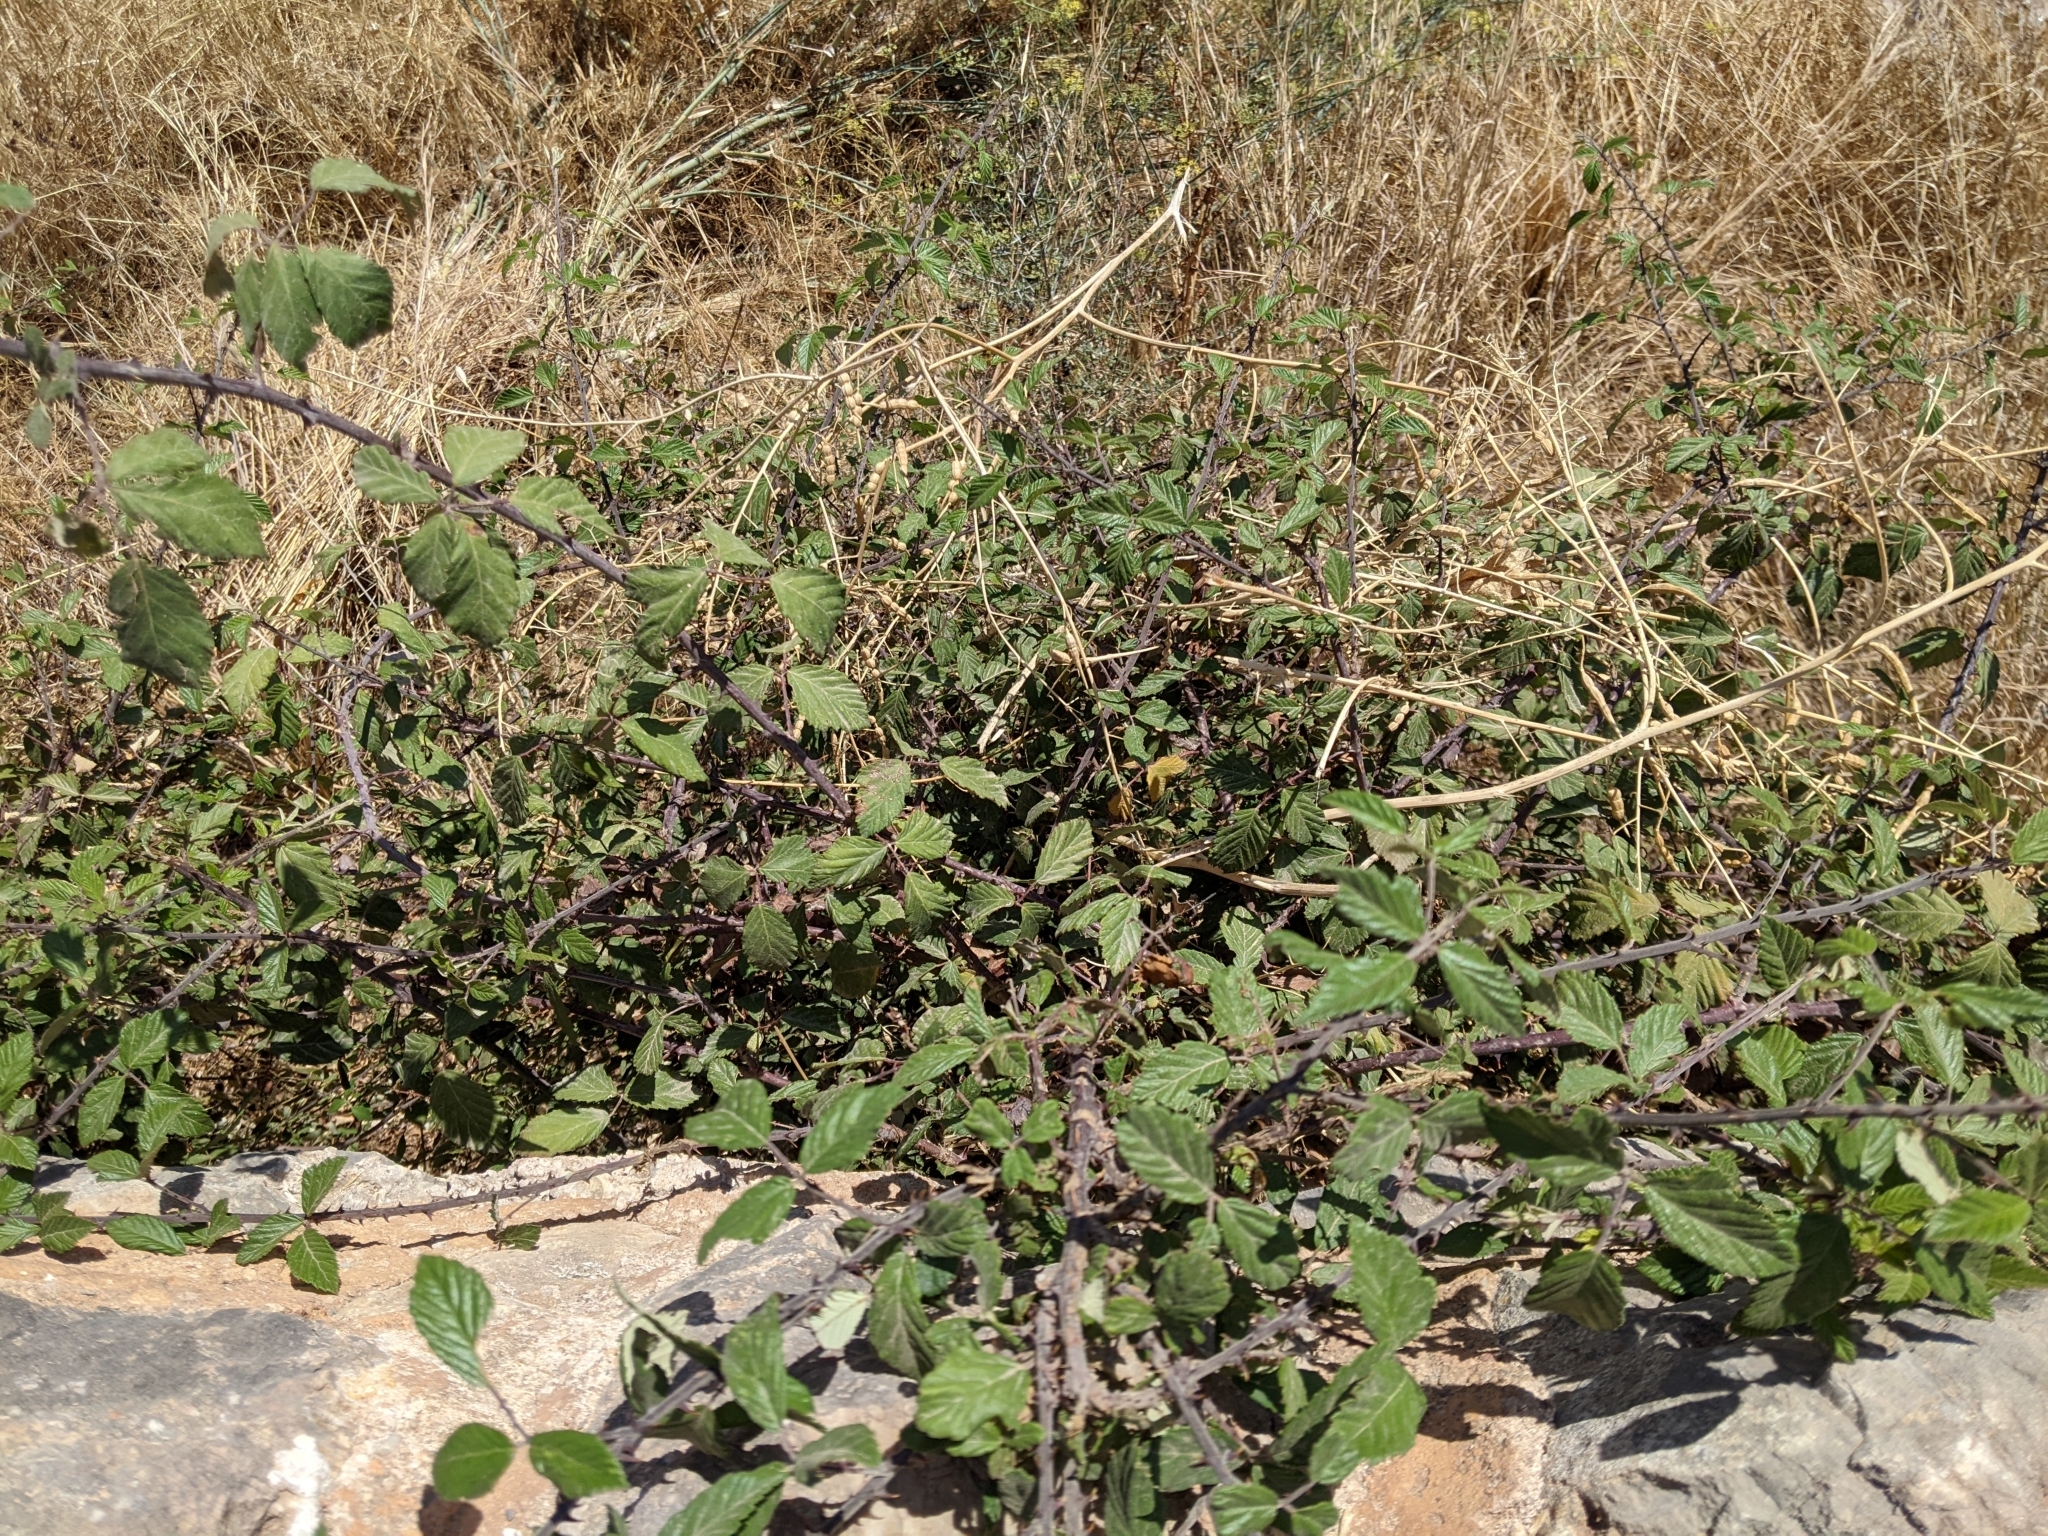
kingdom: Plantae
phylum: Tracheophyta
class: Magnoliopsida
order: Rosales
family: Rosaceae
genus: Rubus
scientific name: Rubus ulmifolius
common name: Elmleaf blackberry
